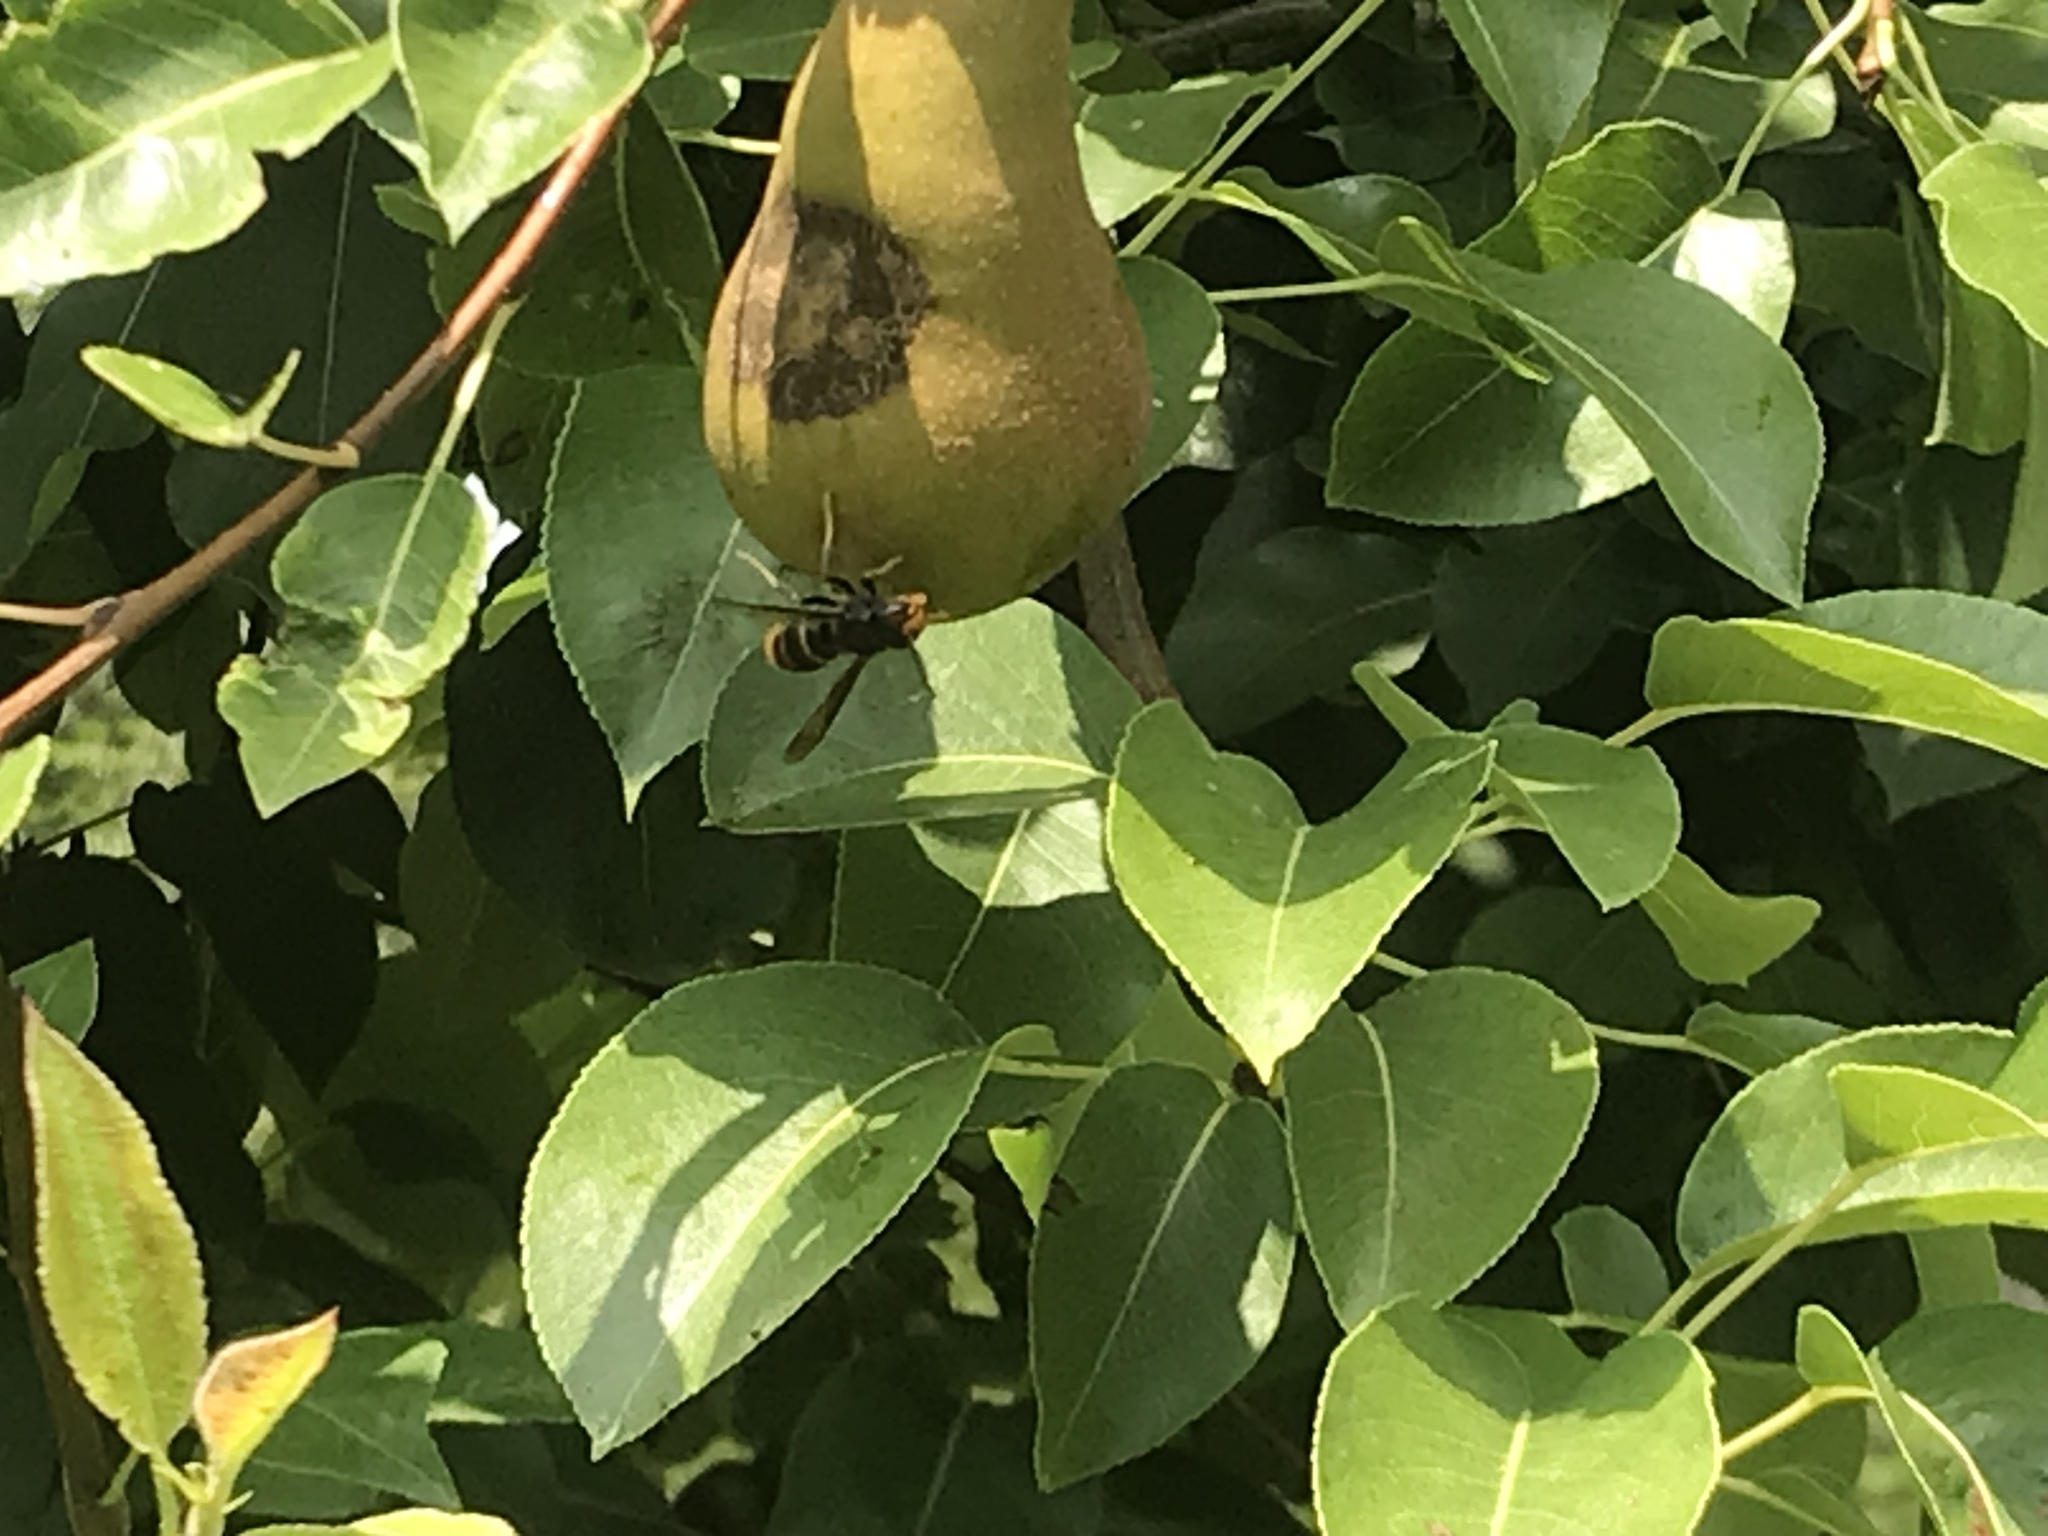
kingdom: Animalia
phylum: Arthropoda
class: Insecta
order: Hymenoptera
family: Vespidae
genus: Vespa
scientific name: Vespa velutina
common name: Asian hornet
